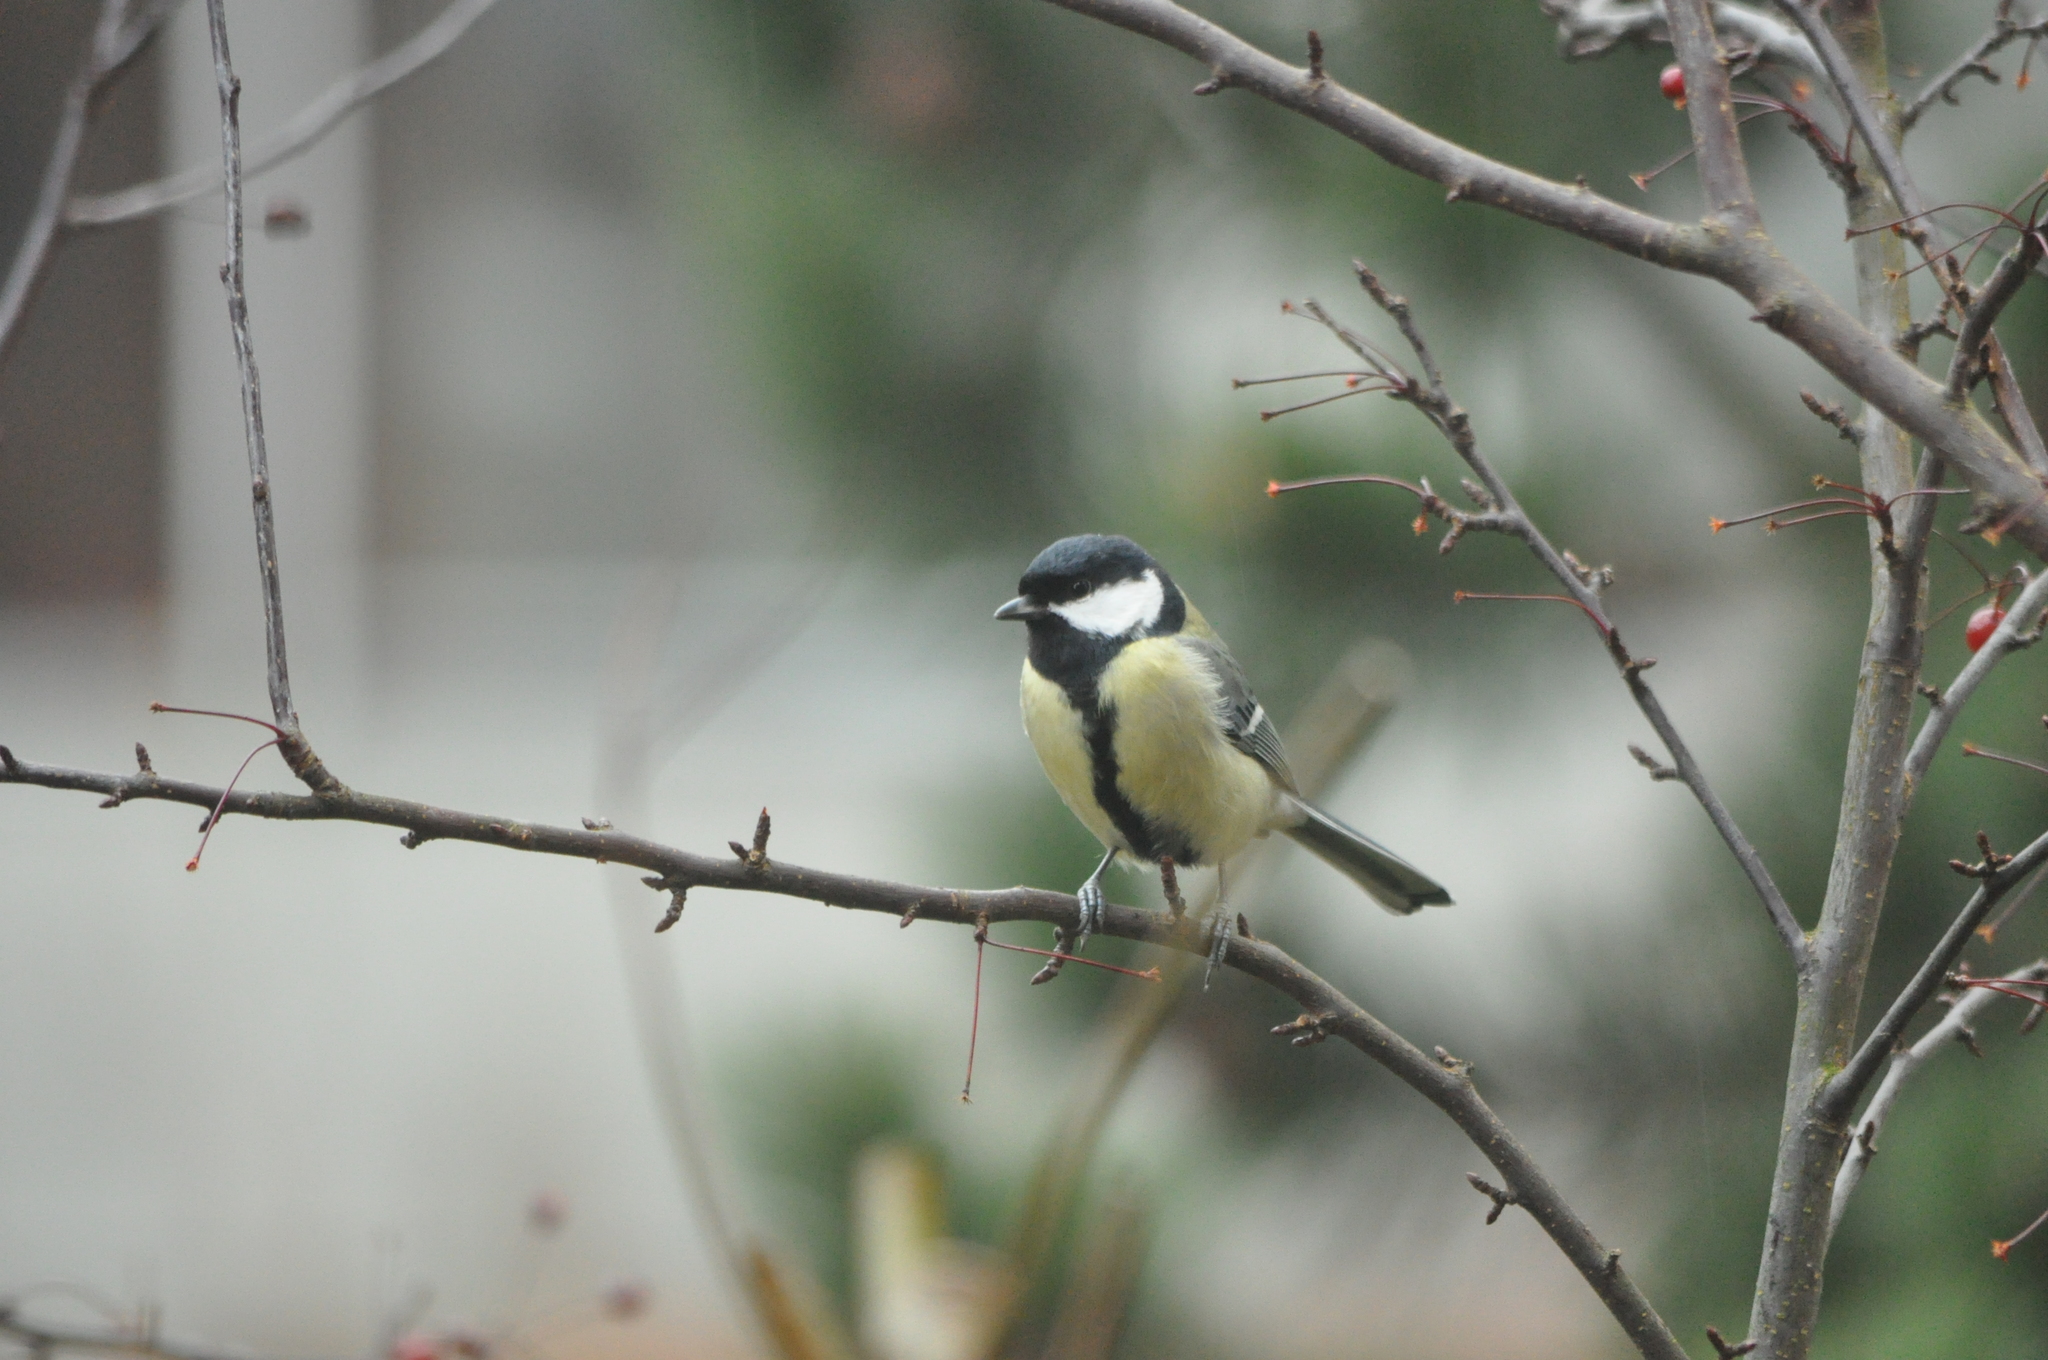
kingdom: Animalia
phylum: Chordata
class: Aves
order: Passeriformes
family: Paridae
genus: Parus
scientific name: Parus major
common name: Great tit
